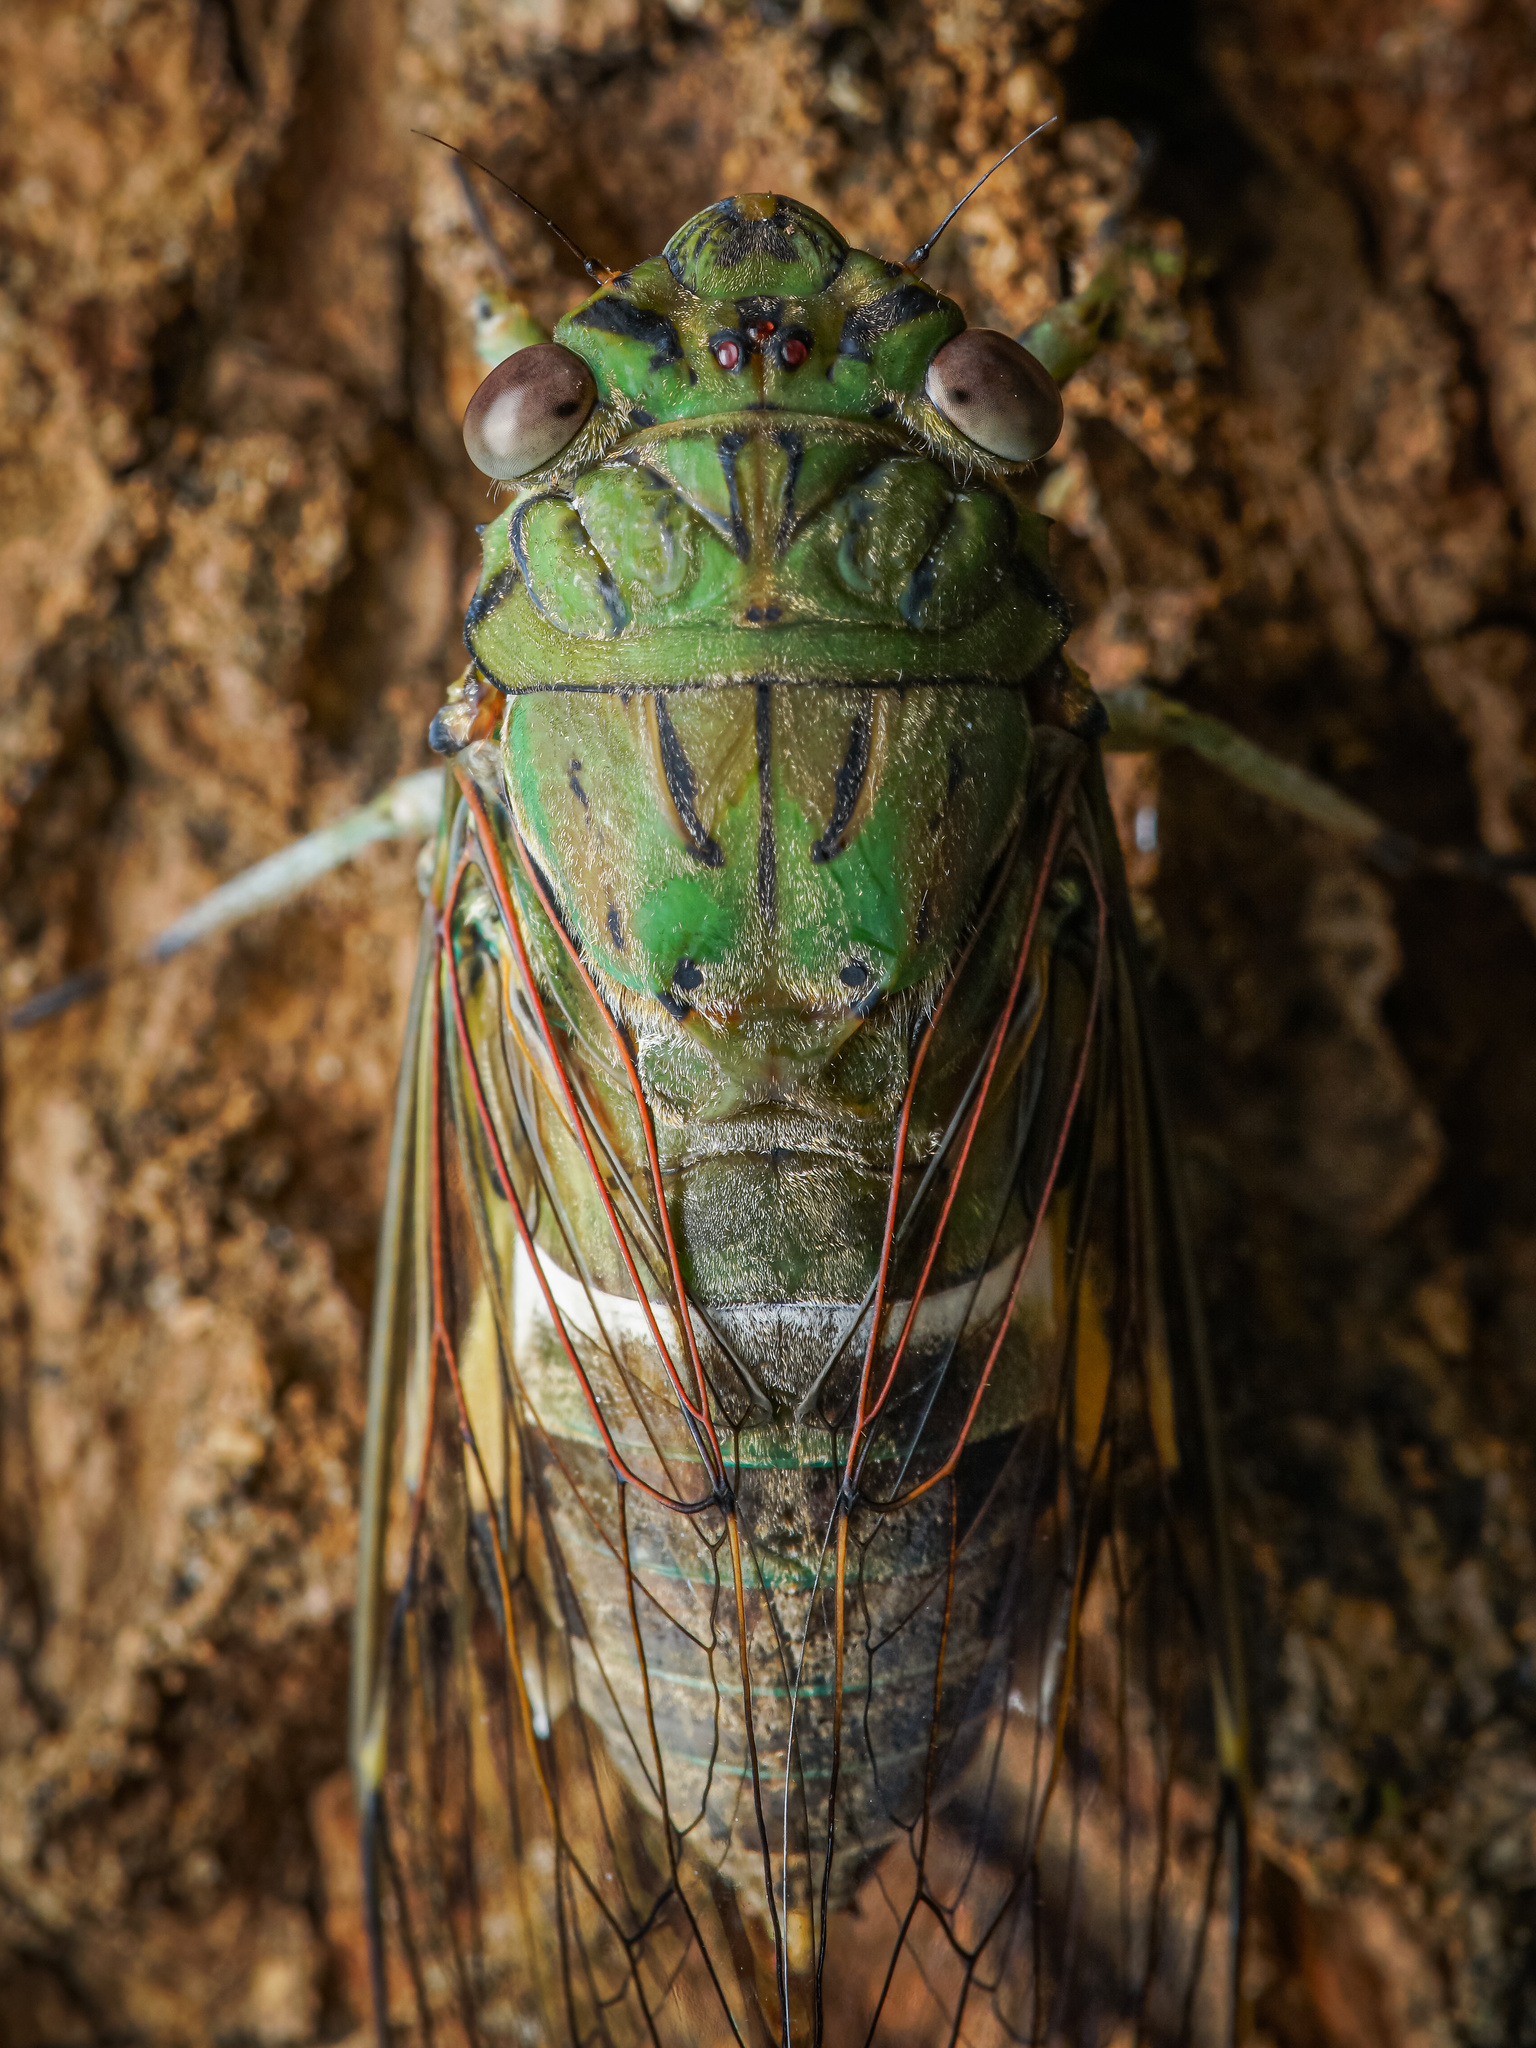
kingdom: Animalia
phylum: Arthropoda
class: Insecta
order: Hemiptera
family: Cicadidae
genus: Orientopsaltria
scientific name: Orientopsaltria fuliginosa
